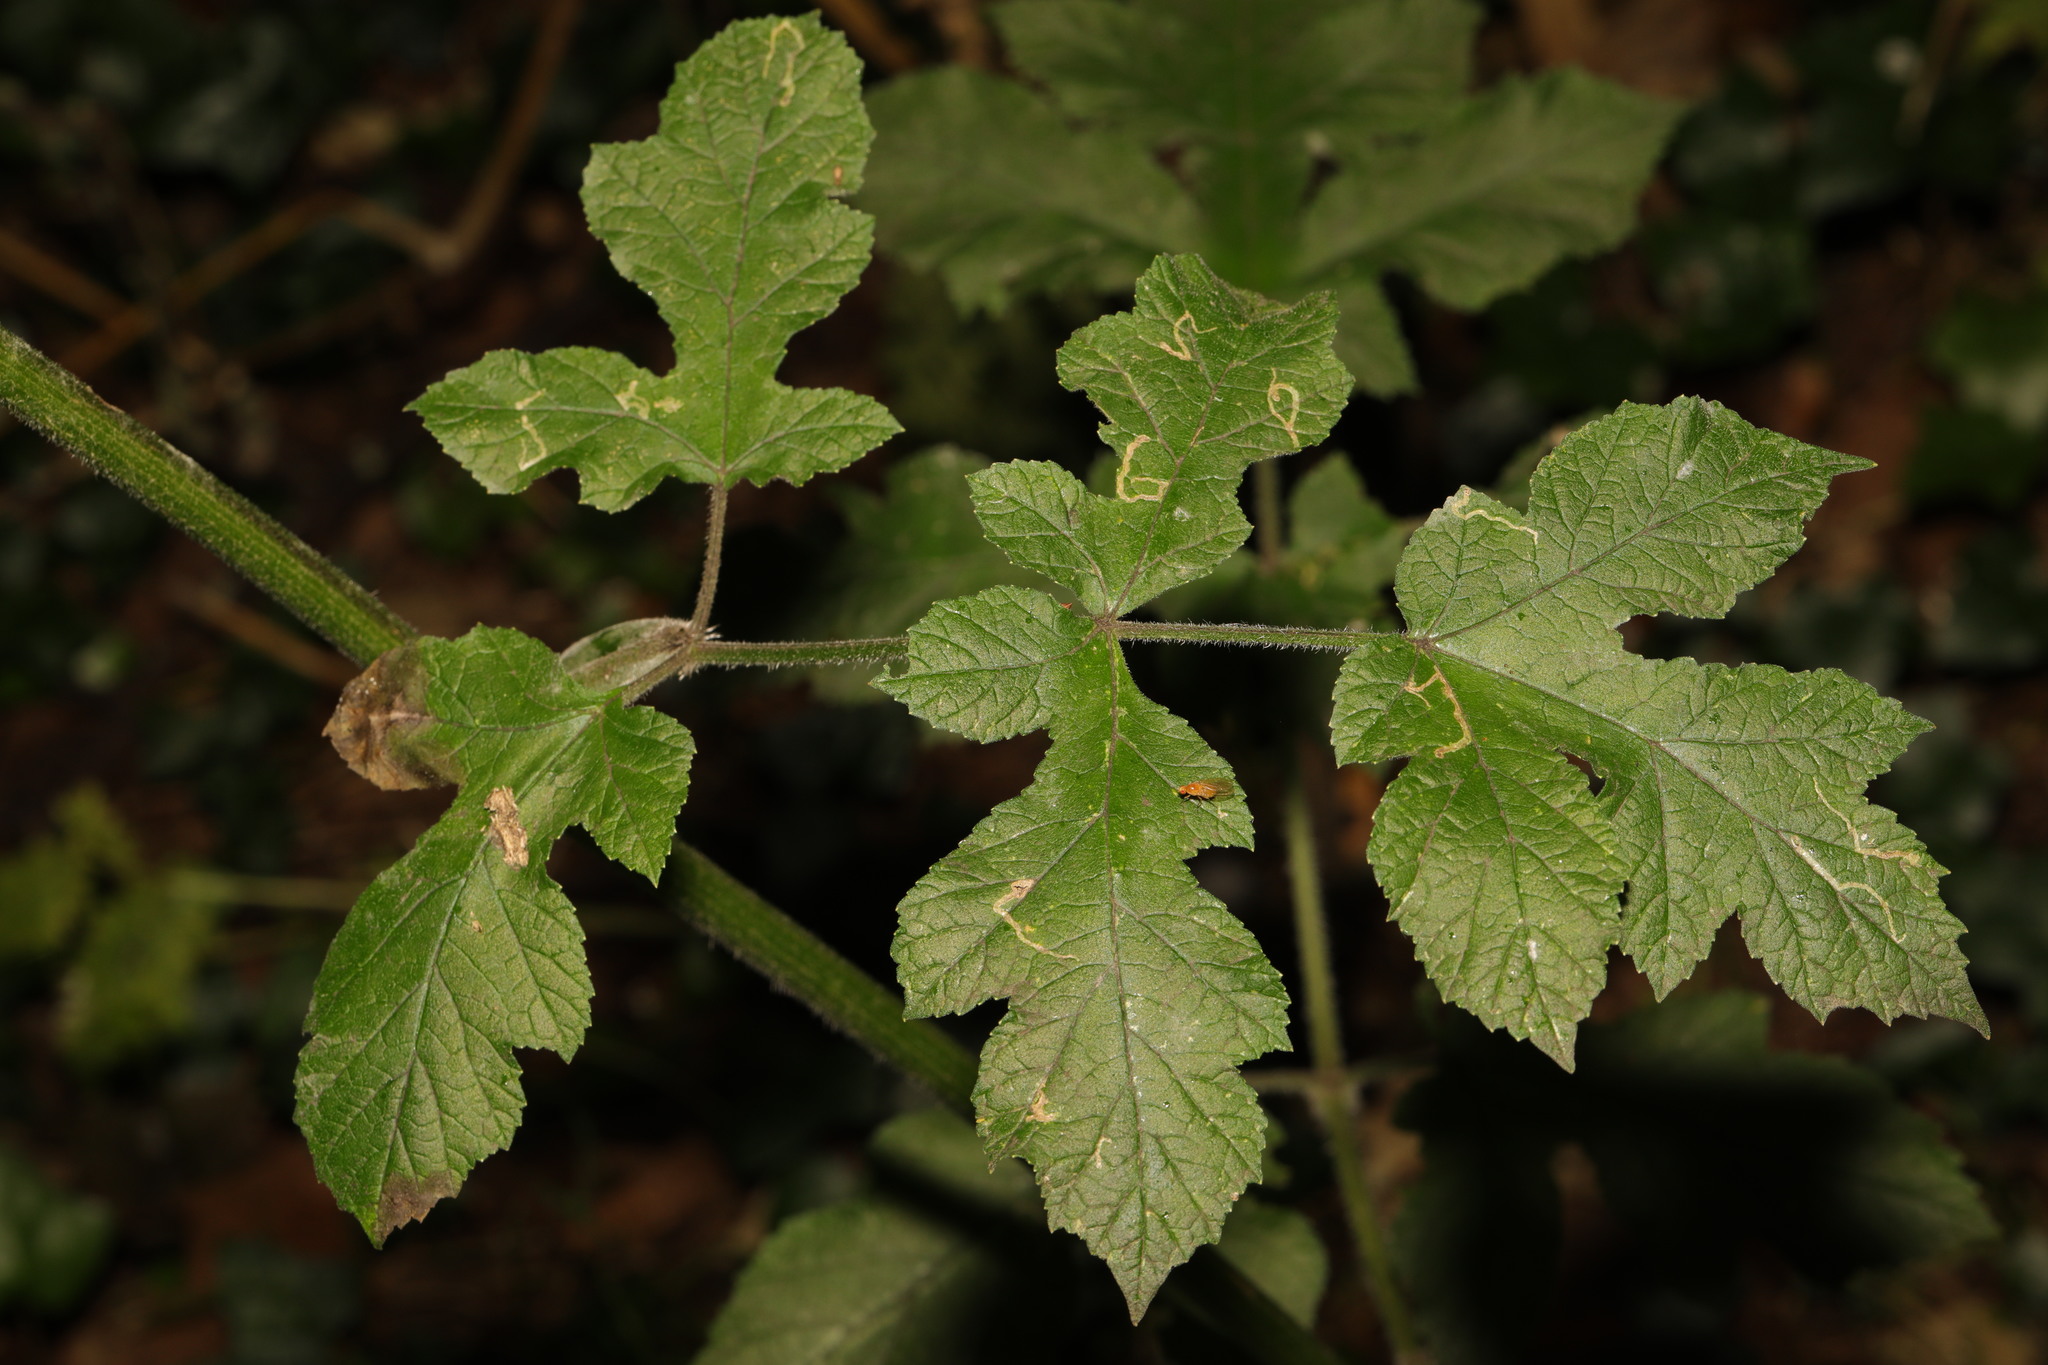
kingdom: Plantae
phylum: Tracheophyta
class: Magnoliopsida
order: Apiales
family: Apiaceae
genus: Heracleum
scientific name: Heracleum sphondylium
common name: Hogweed
